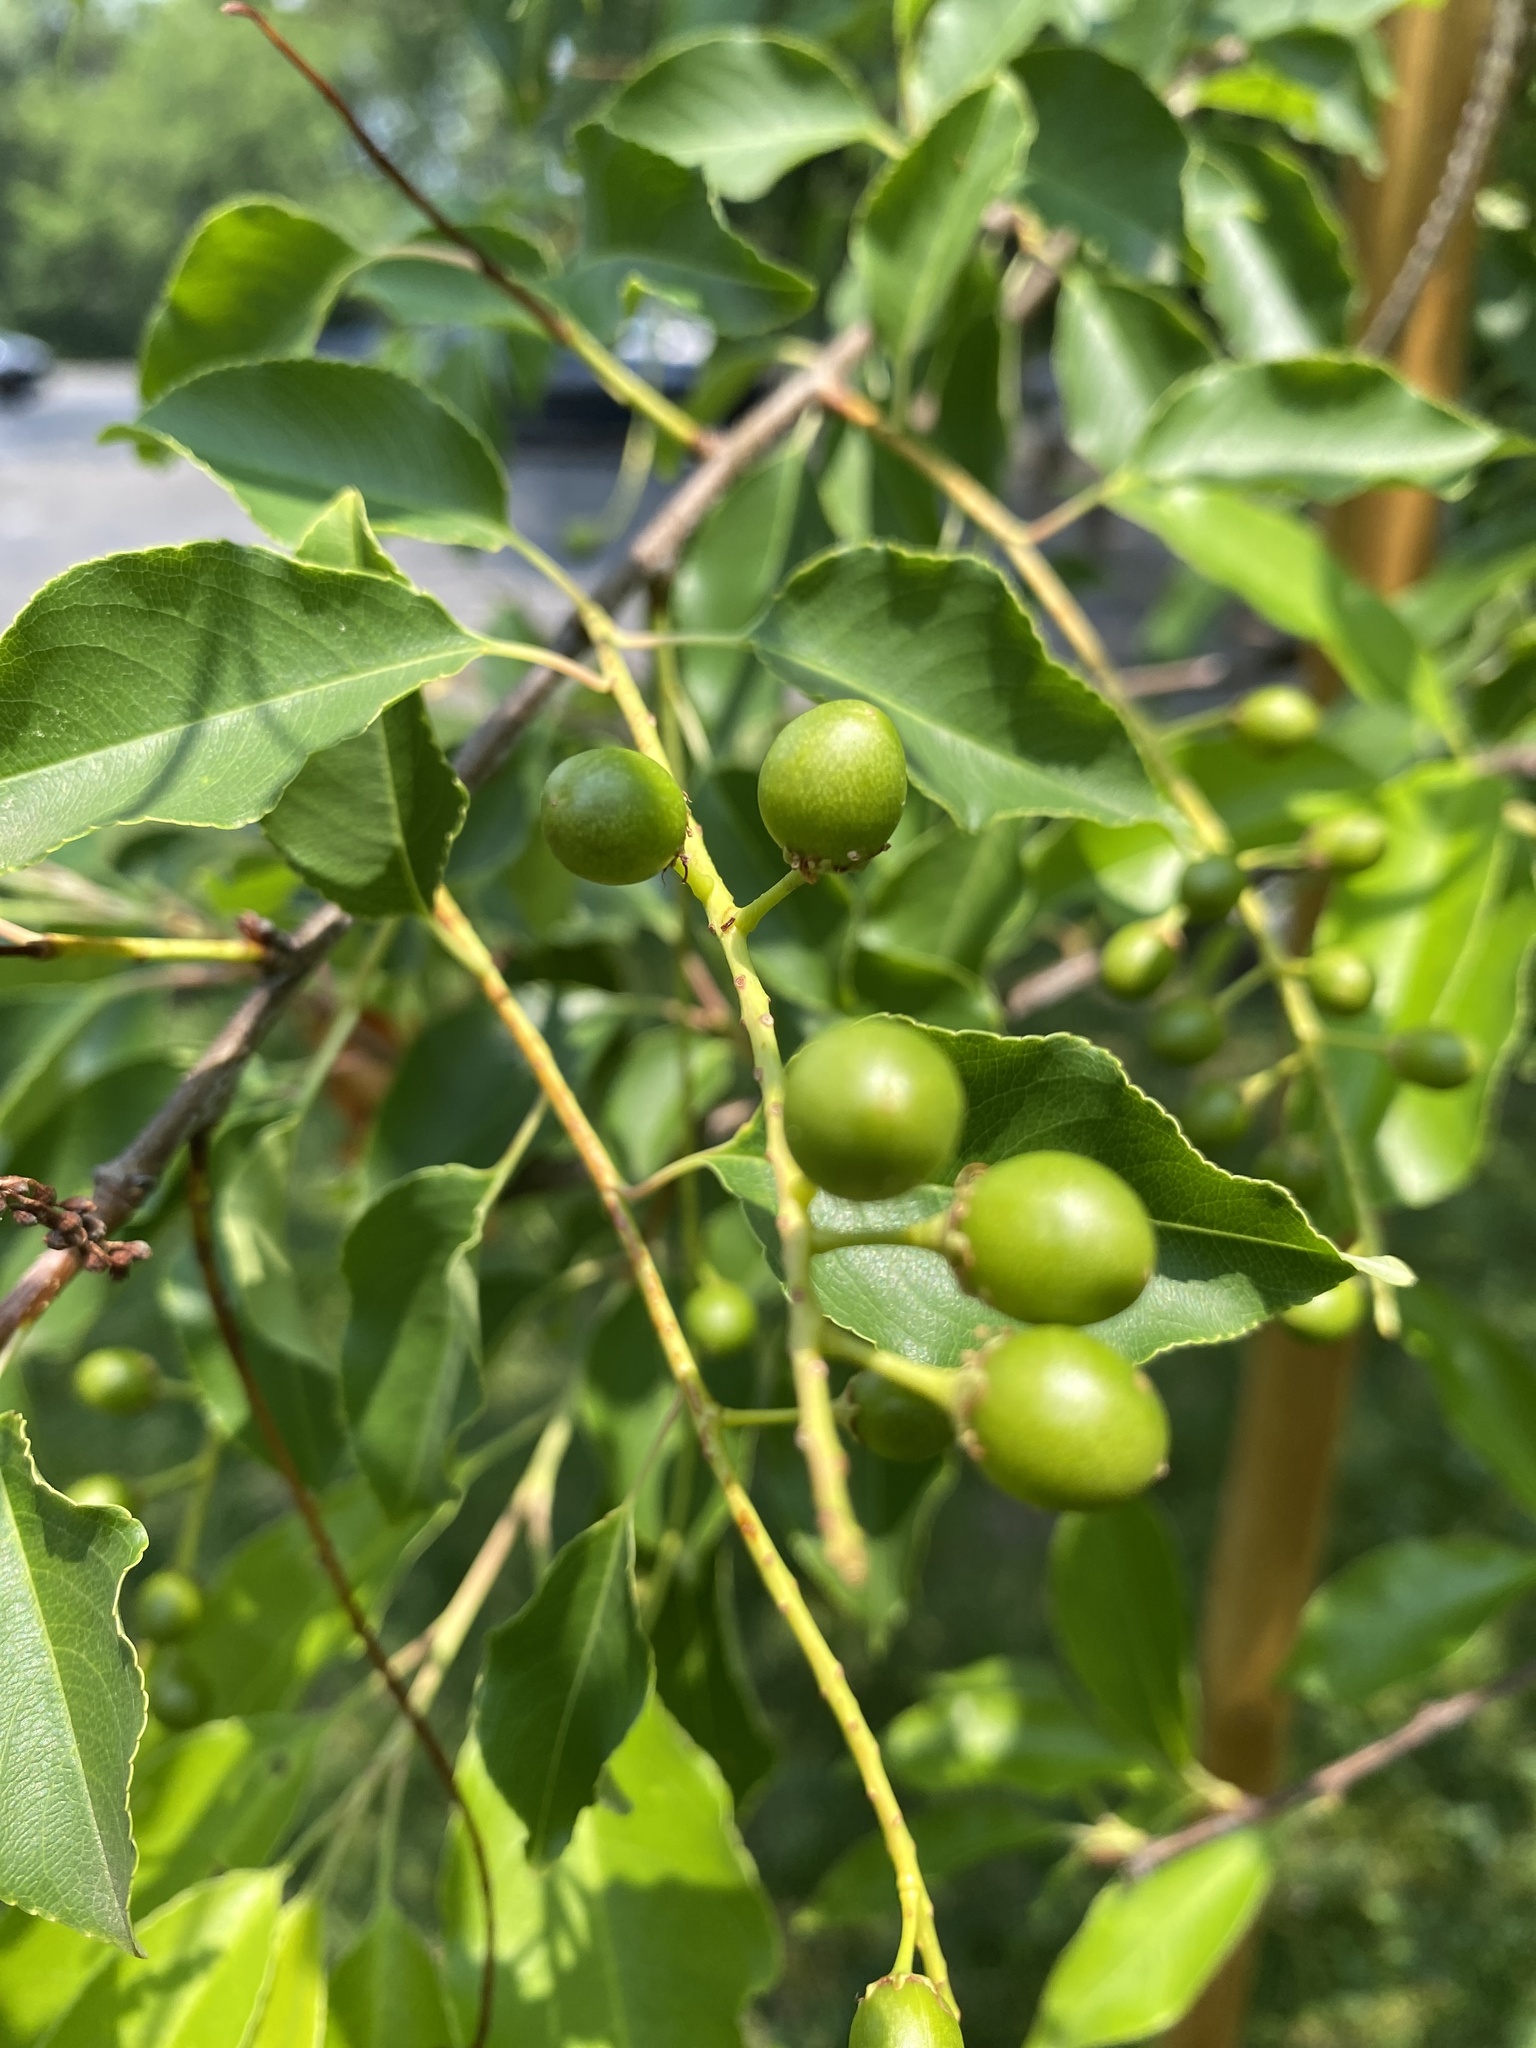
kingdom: Plantae
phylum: Tracheophyta
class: Magnoliopsida
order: Rosales
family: Rosaceae
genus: Prunus
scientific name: Prunus serotina
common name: Black cherry
